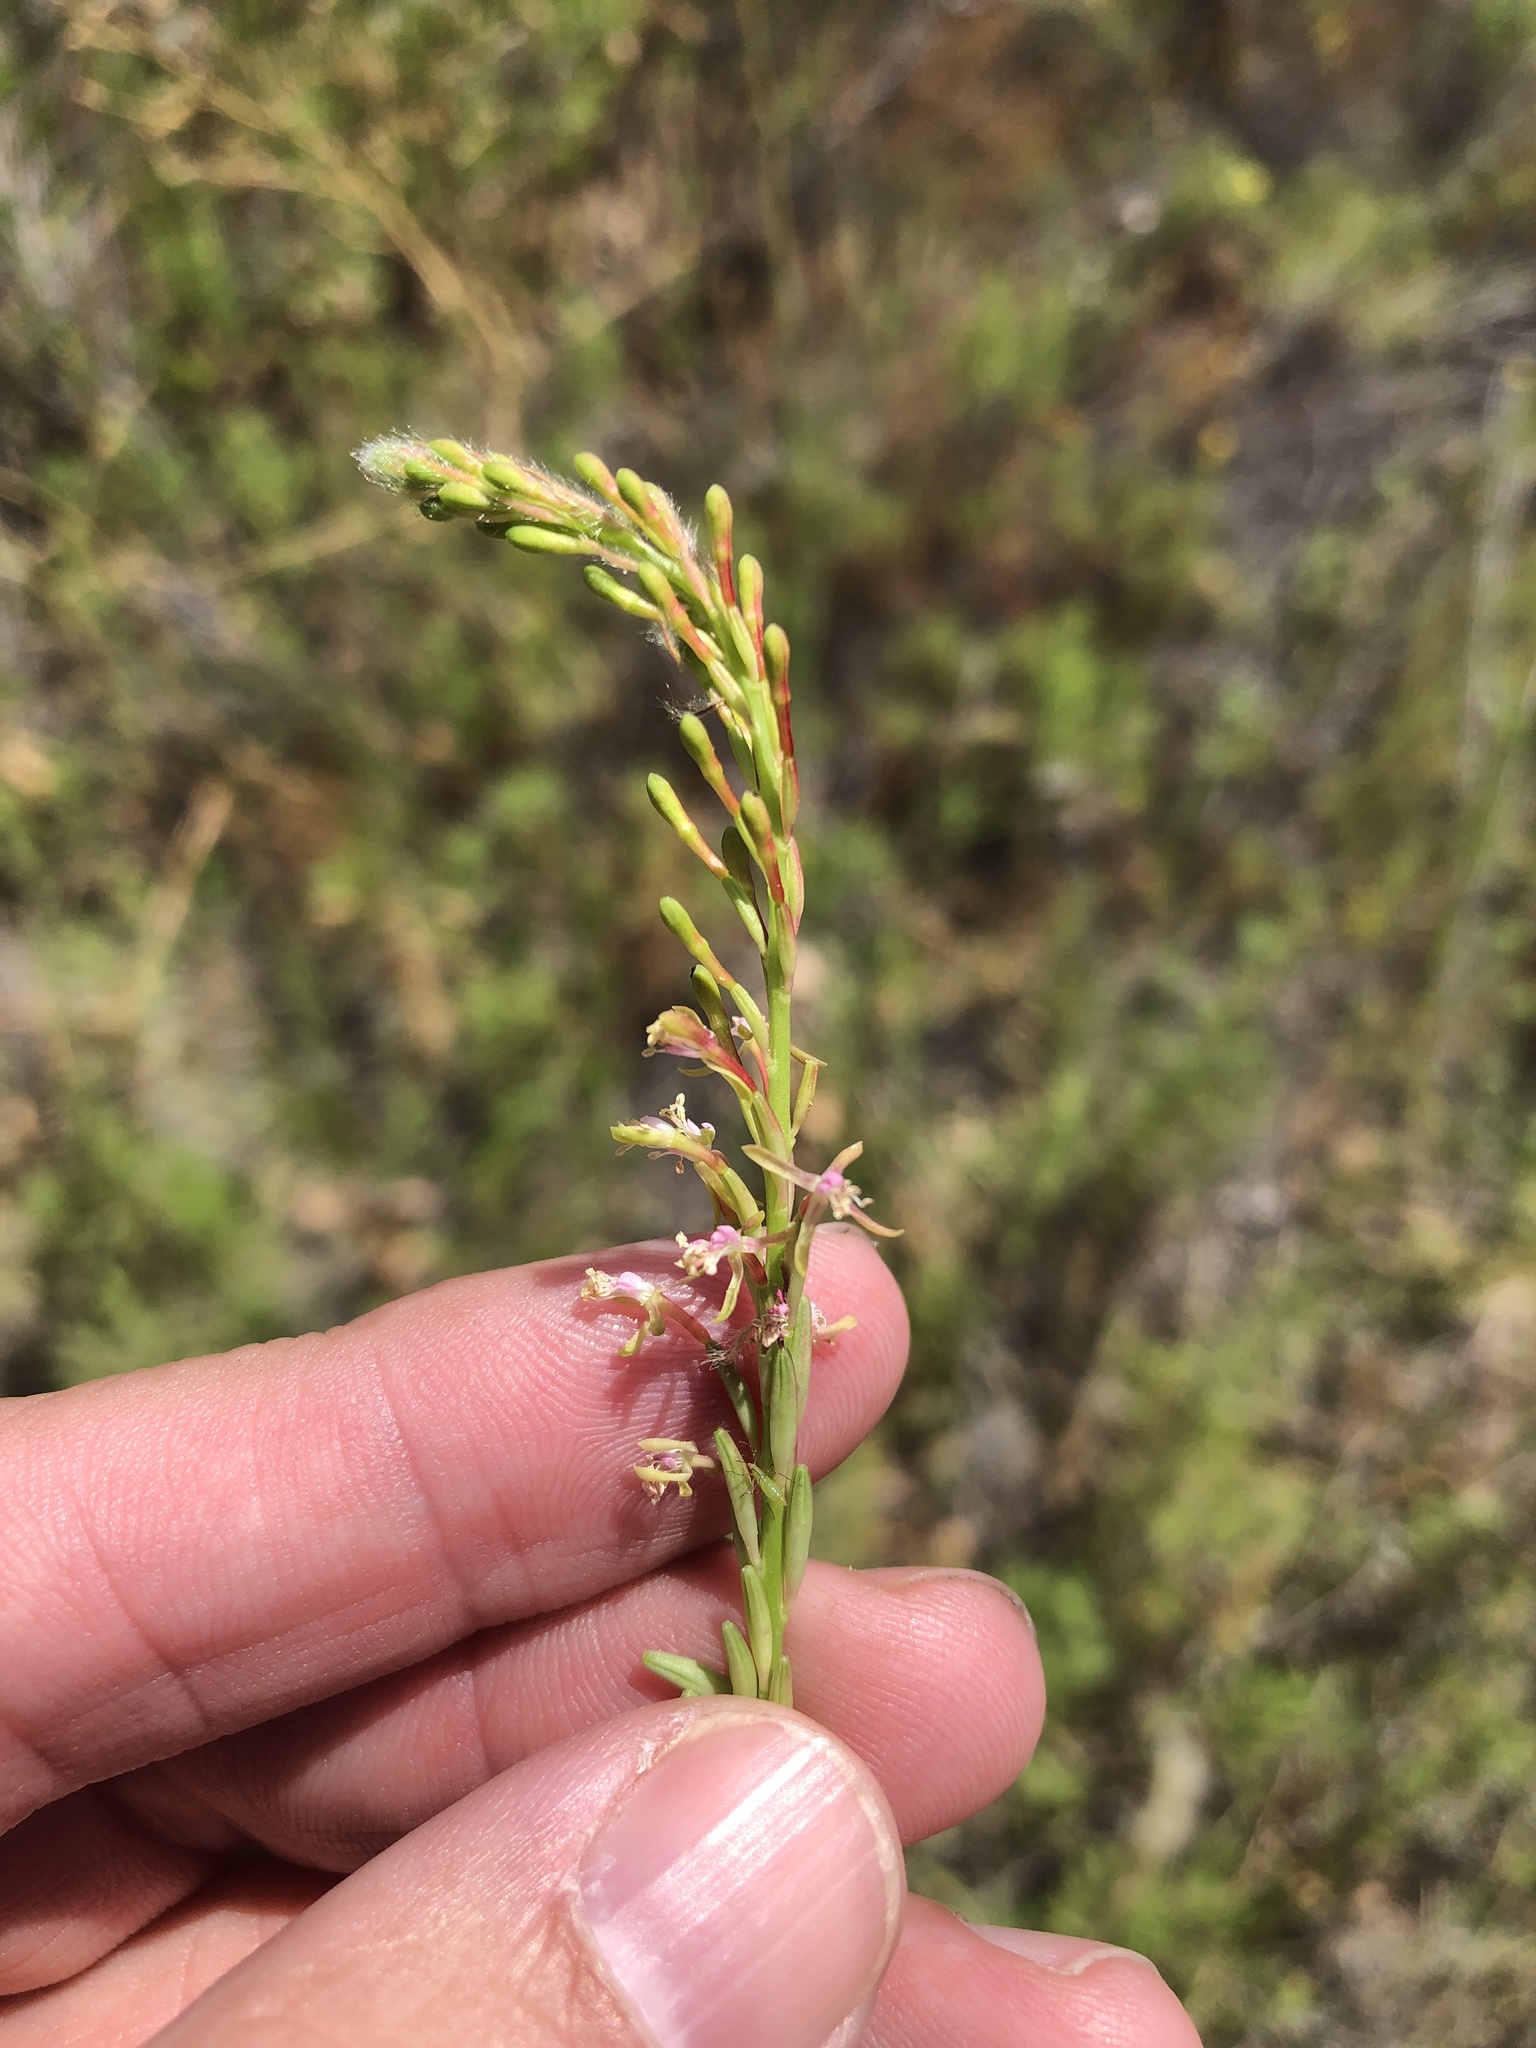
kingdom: Plantae
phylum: Tracheophyta
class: Magnoliopsida
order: Myrtales
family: Onagraceae
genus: Oenothera
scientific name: Oenothera curtiflora
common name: Velvetweed
